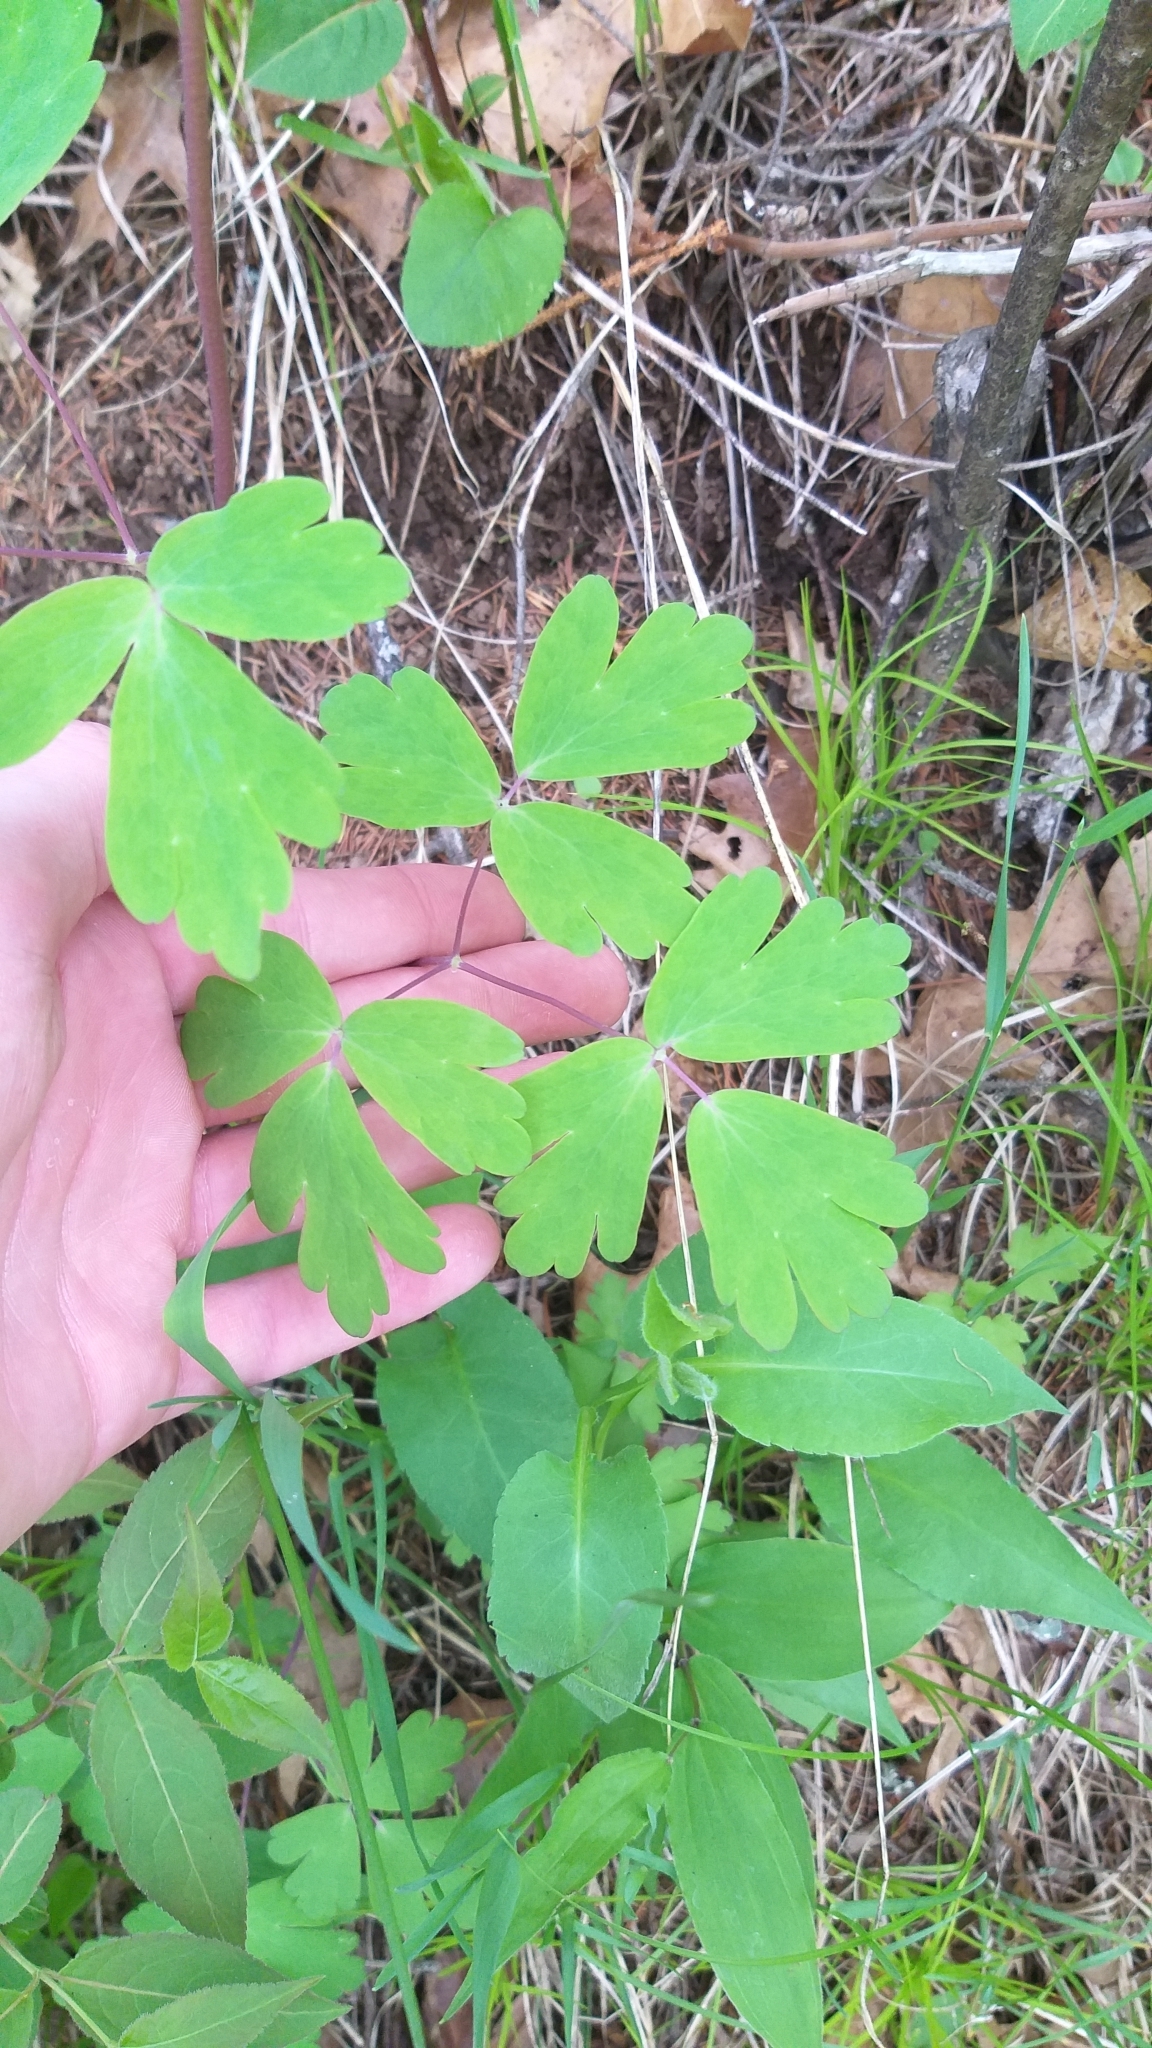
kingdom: Plantae
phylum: Tracheophyta
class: Magnoliopsida
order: Ranunculales
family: Ranunculaceae
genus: Aquilegia
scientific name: Aquilegia canadensis
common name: American columbine
